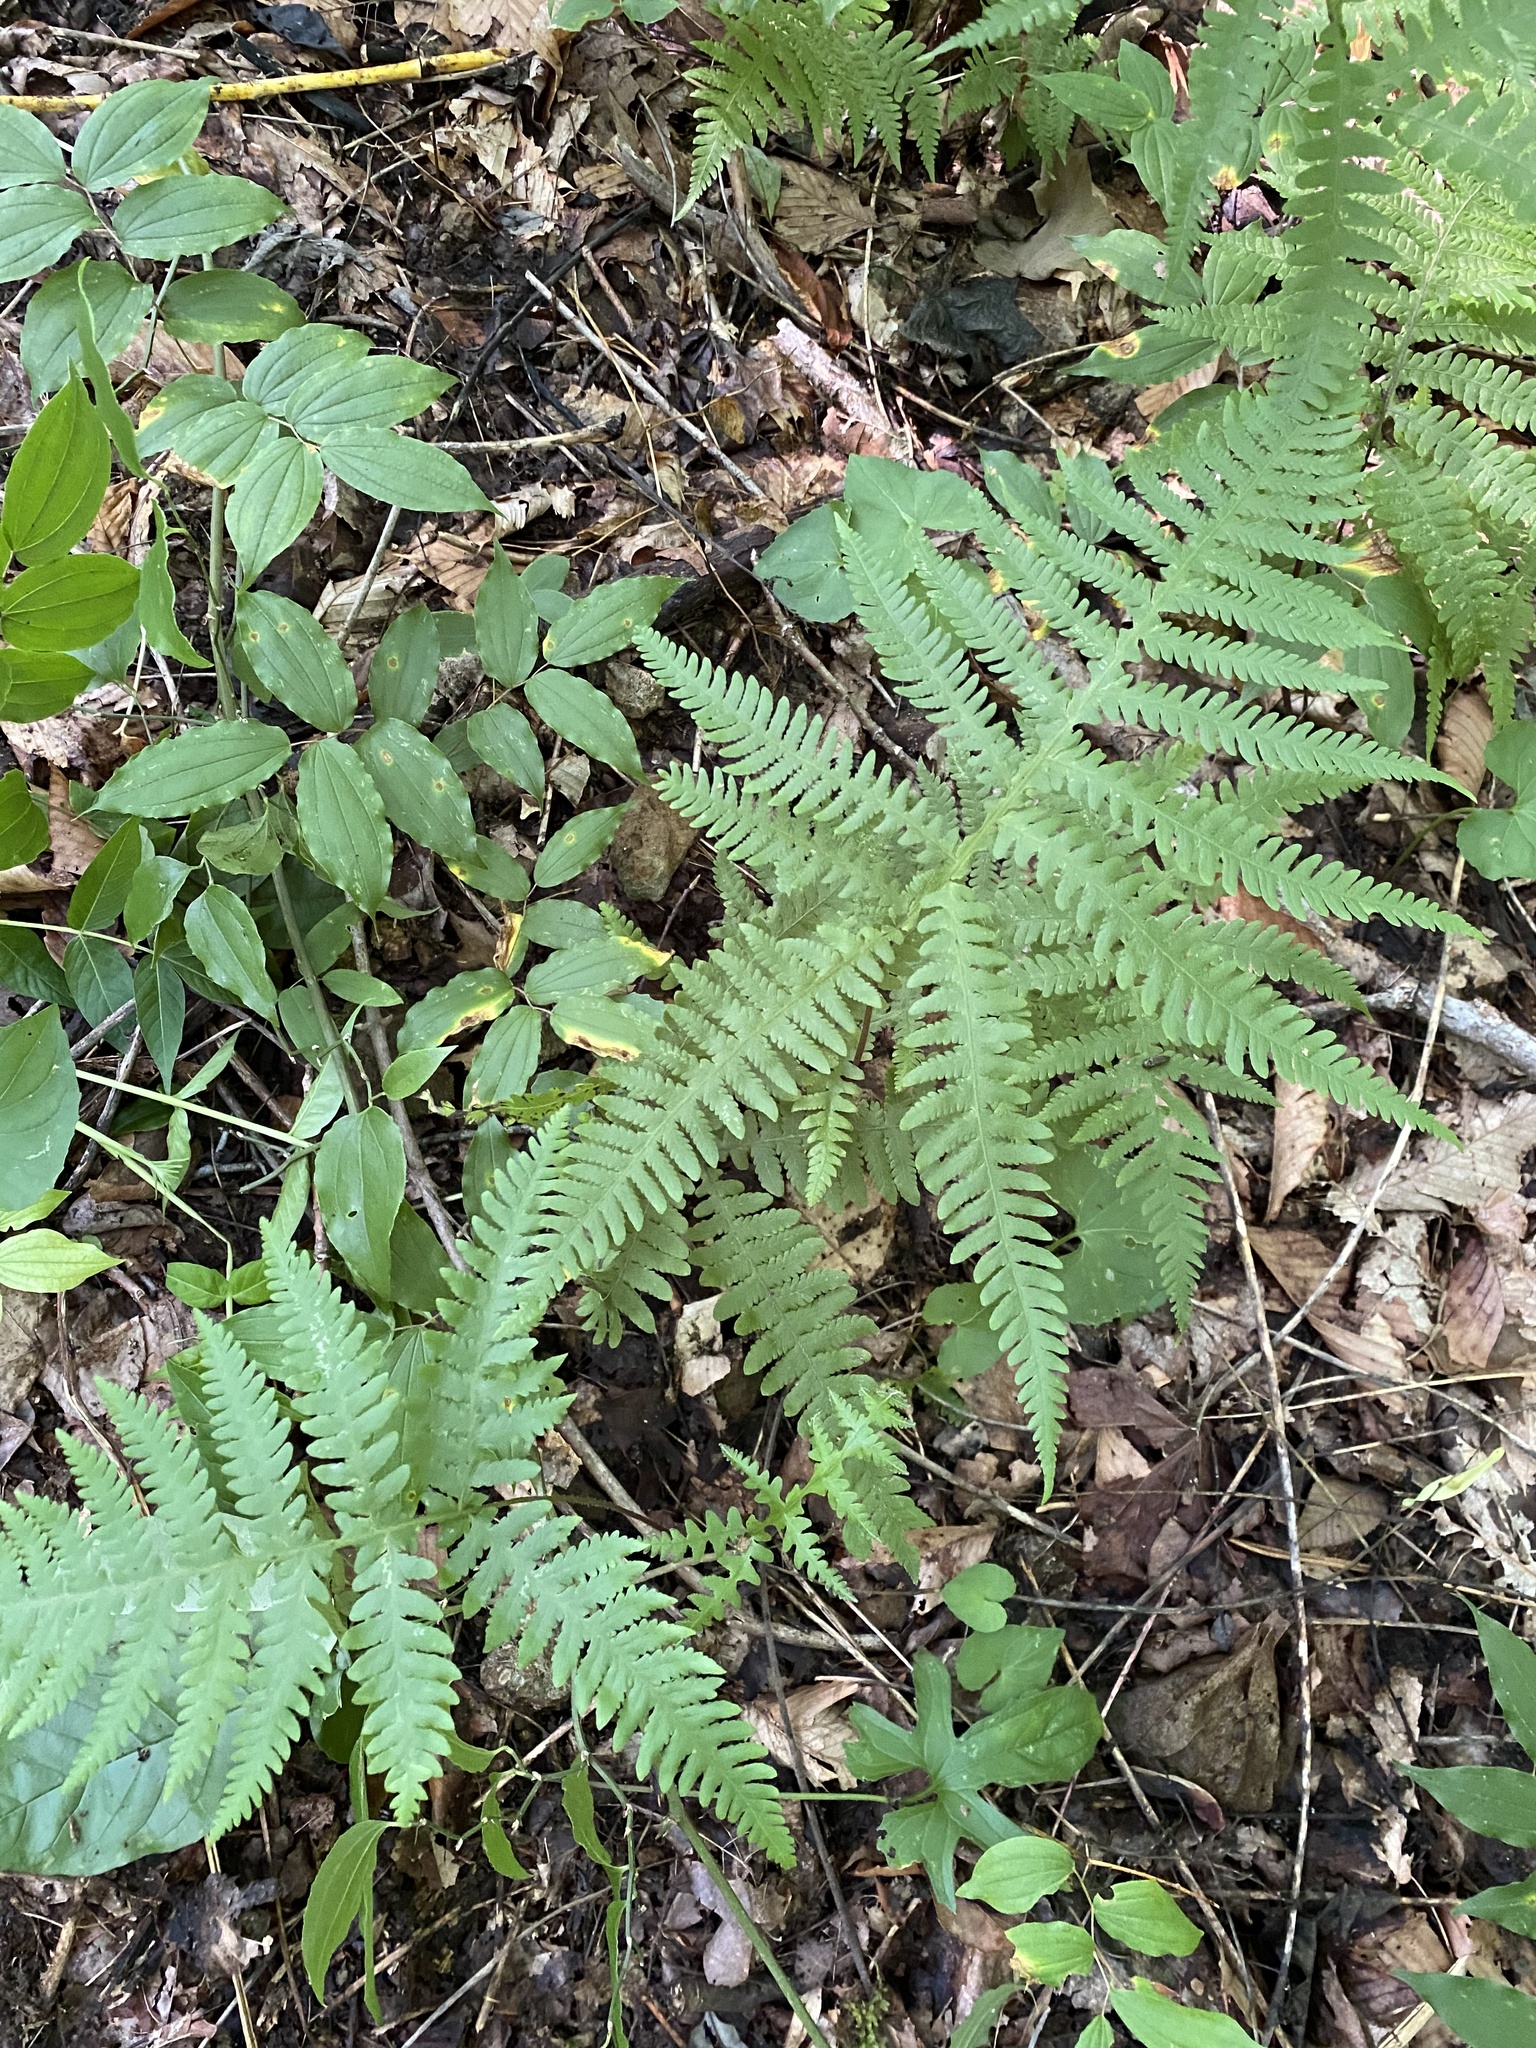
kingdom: Plantae
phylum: Tracheophyta
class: Polypodiopsida
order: Polypodiales
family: Thelypteridaceae
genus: Phegopteris
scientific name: Phegopteris hexagonoptera
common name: Broad beech fern
